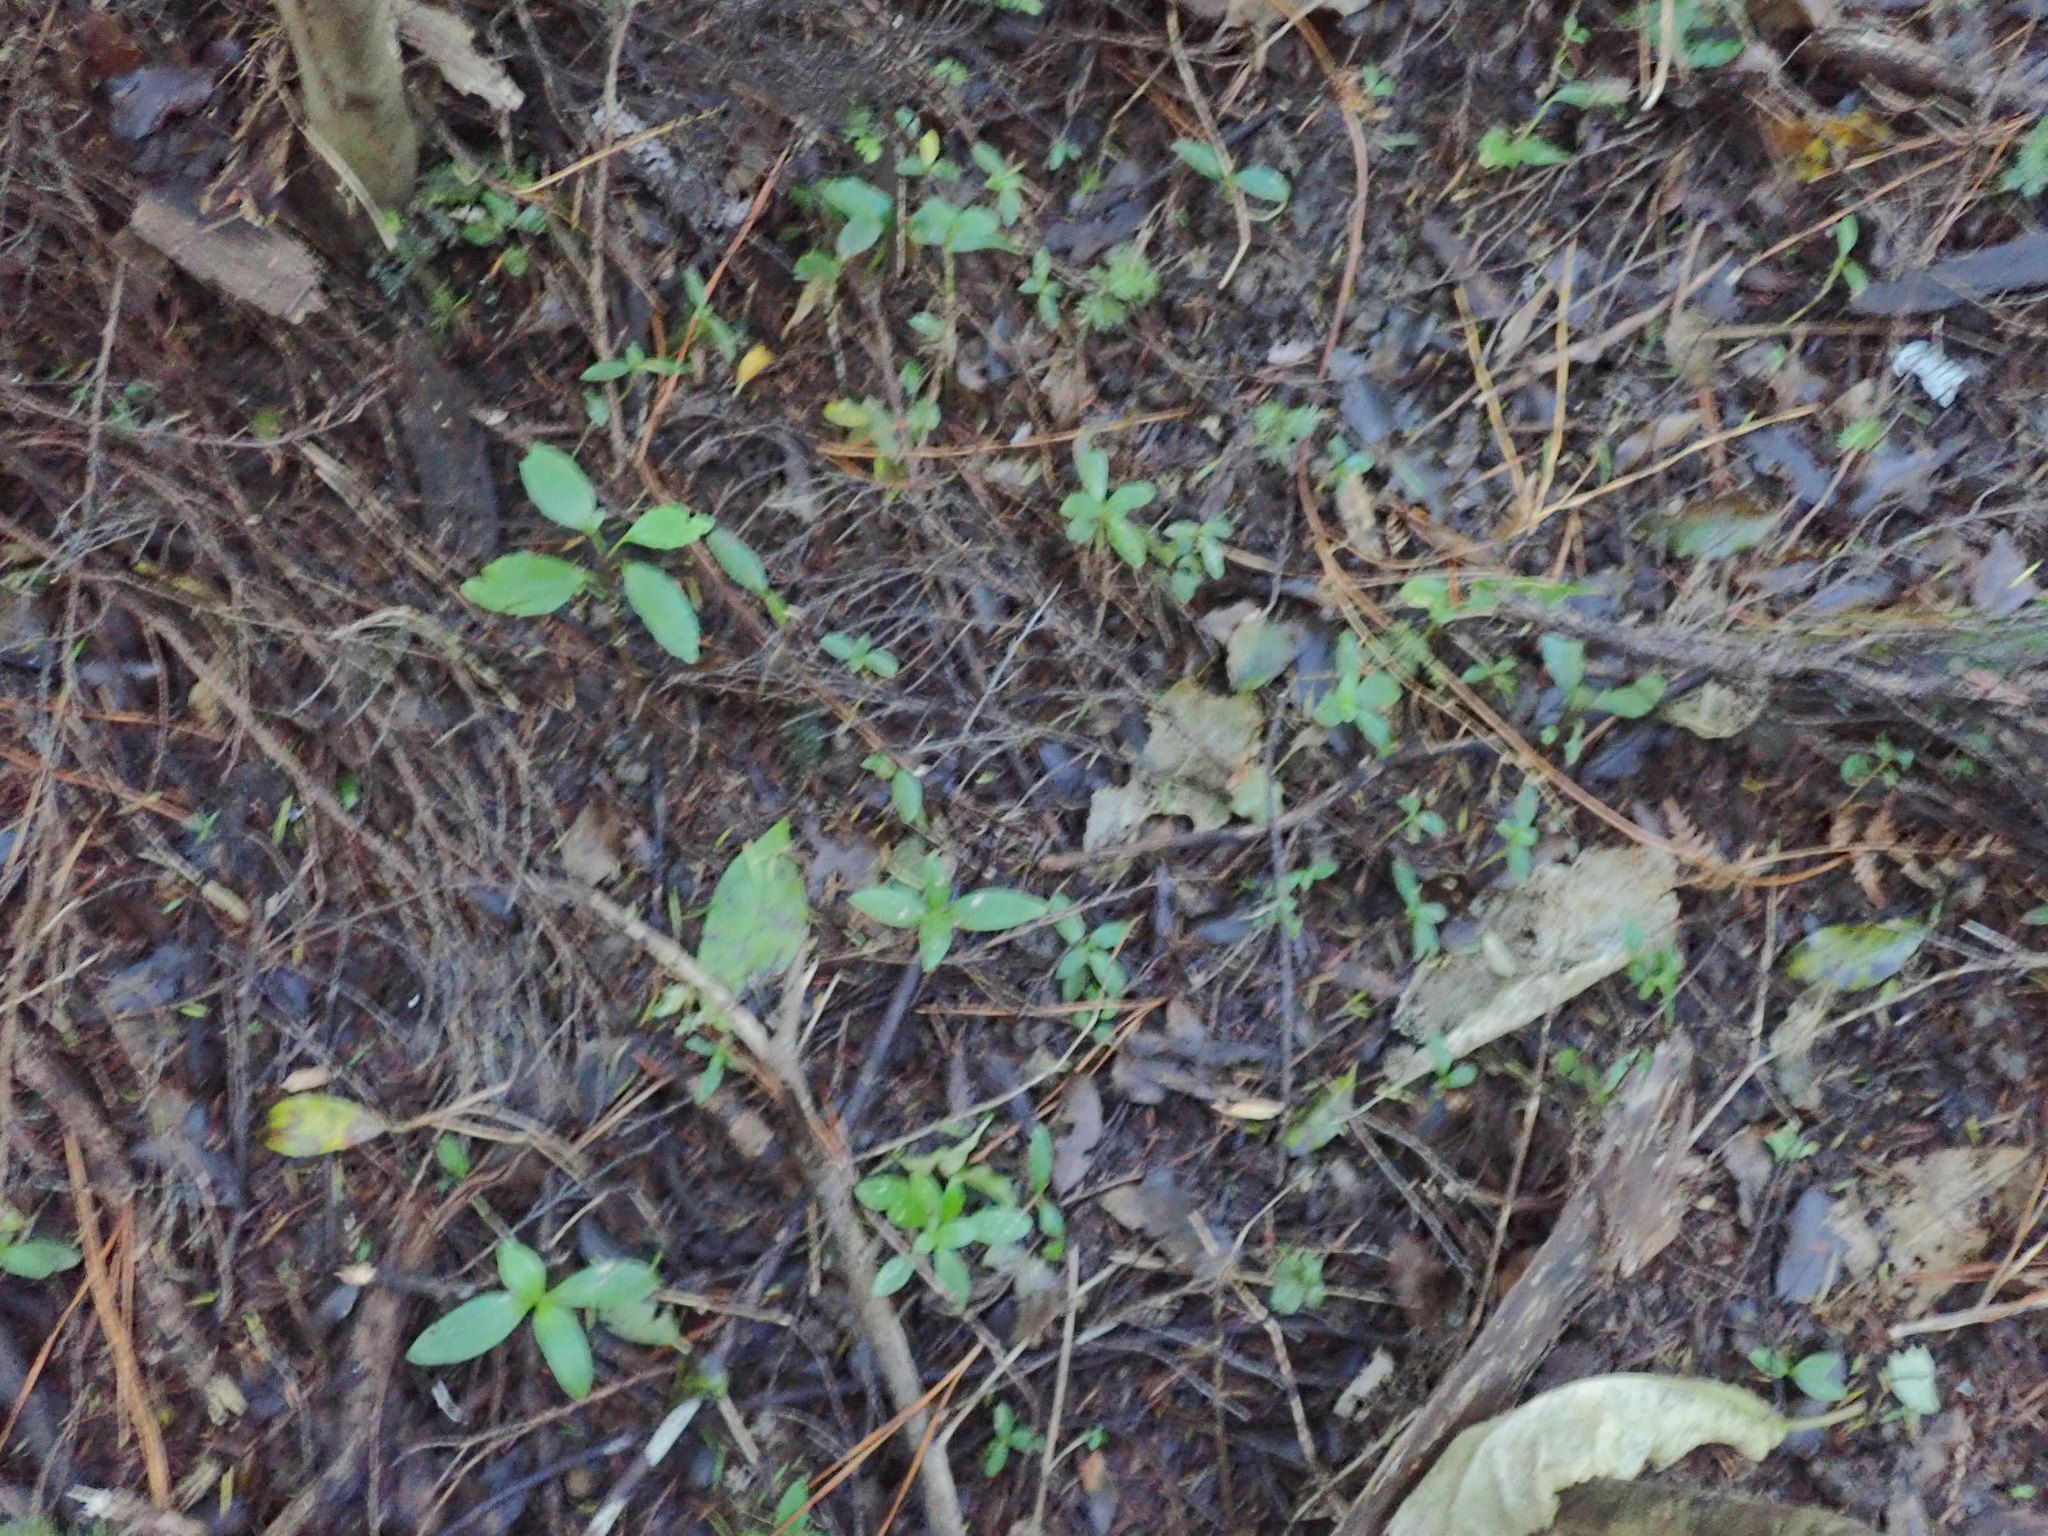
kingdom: Plantae
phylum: Tracheophyta
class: Liliopsida
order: Zingiberales
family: Zingiberaceae
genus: Hedychium
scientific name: Hedychium gardnerianum
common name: Himalayan ginger
